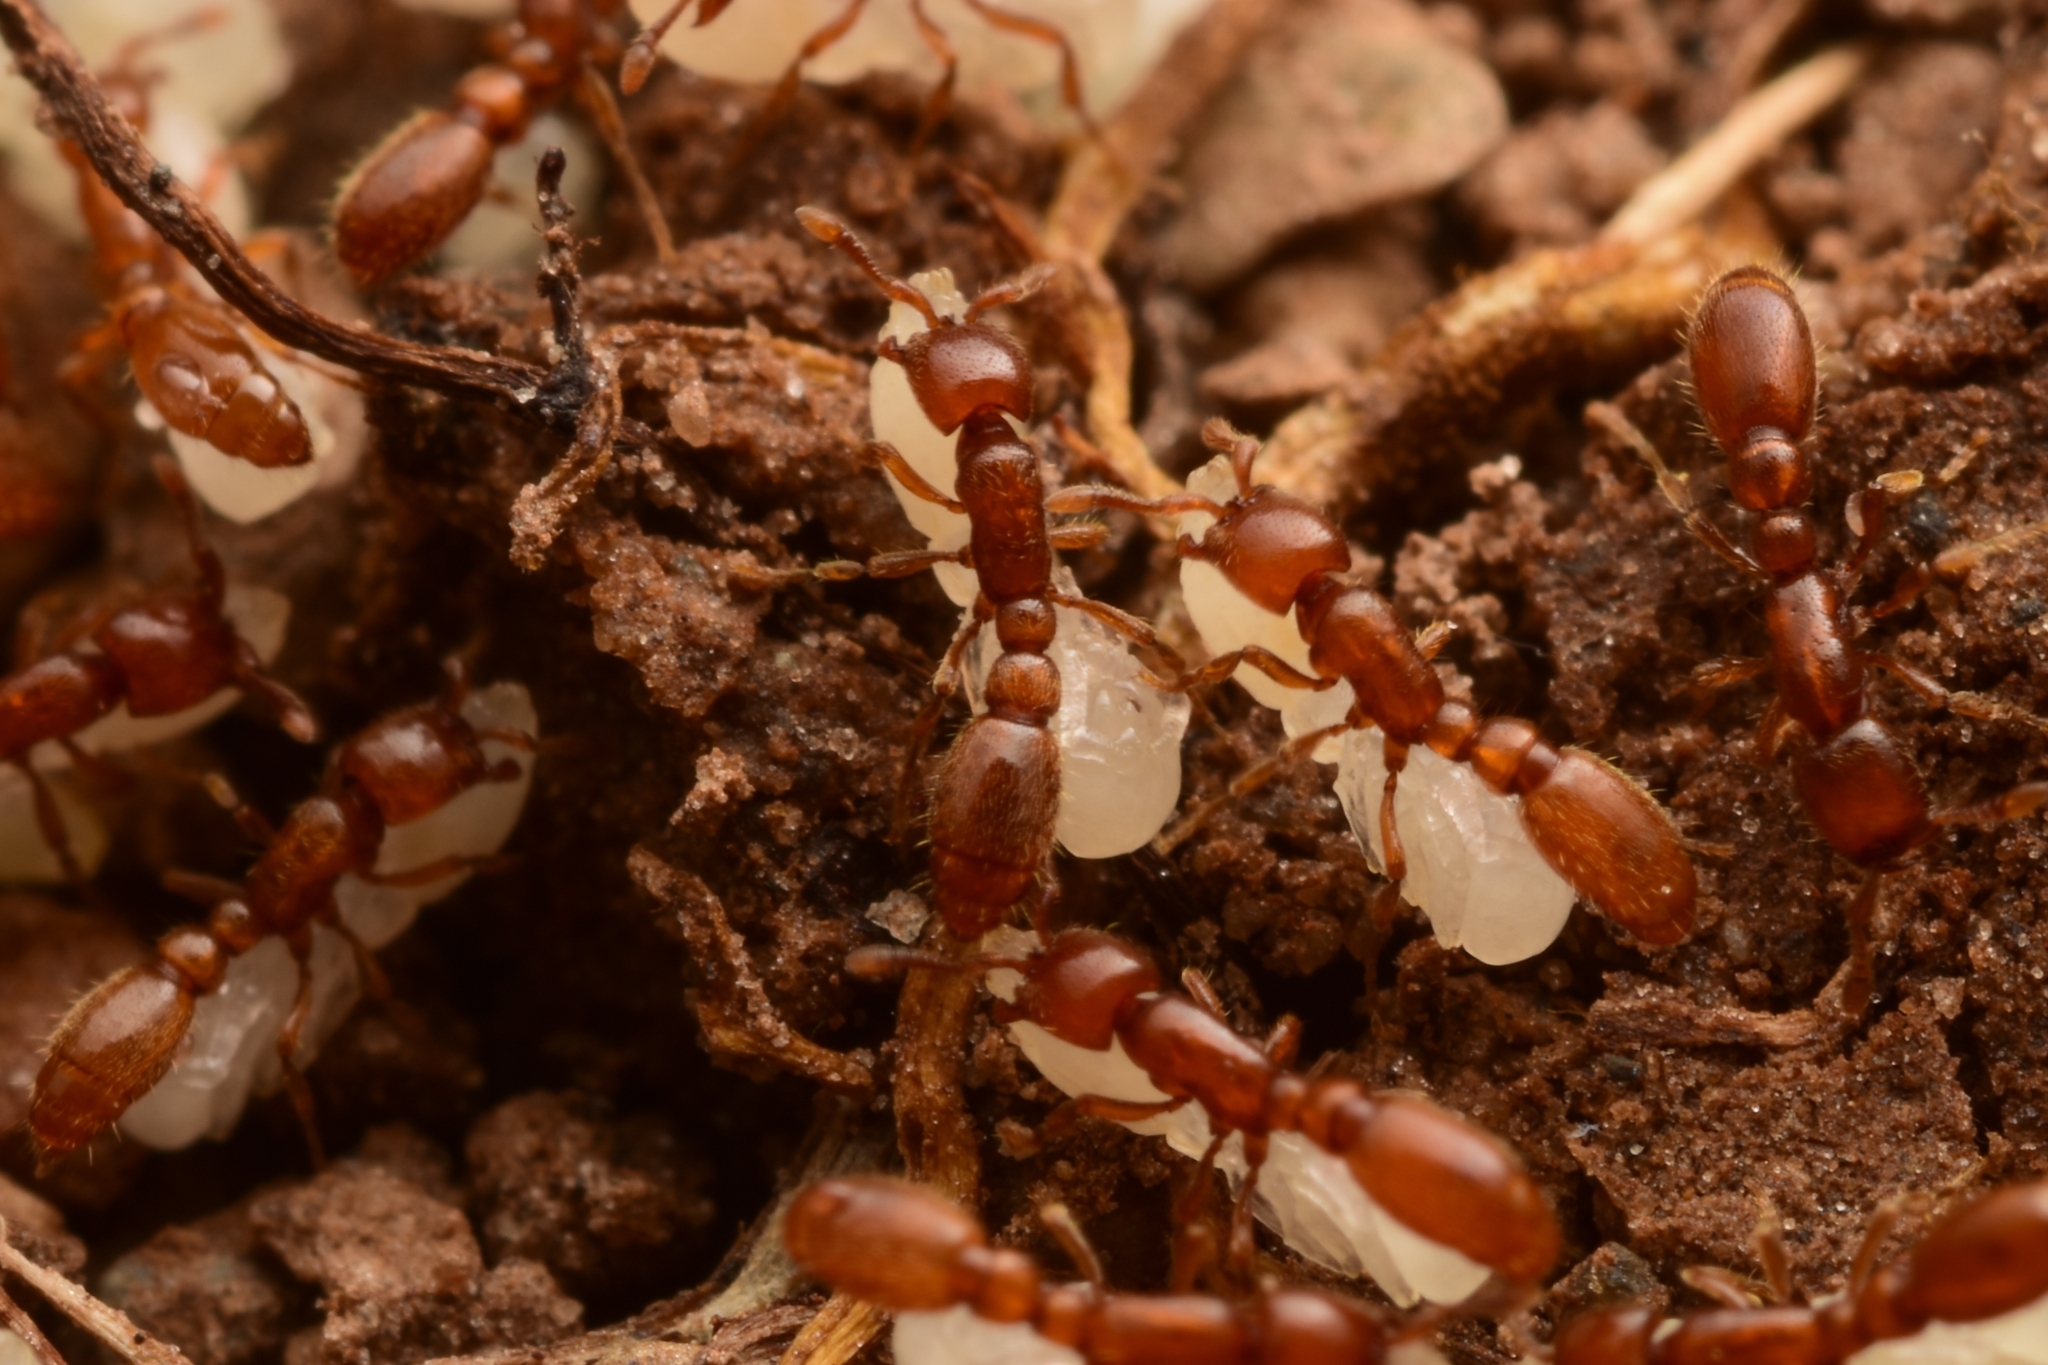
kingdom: Animalia
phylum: Arthropoda
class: Insecta
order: Hymenoptera
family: Formicidae
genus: Ooceraea
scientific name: Ooceraea
